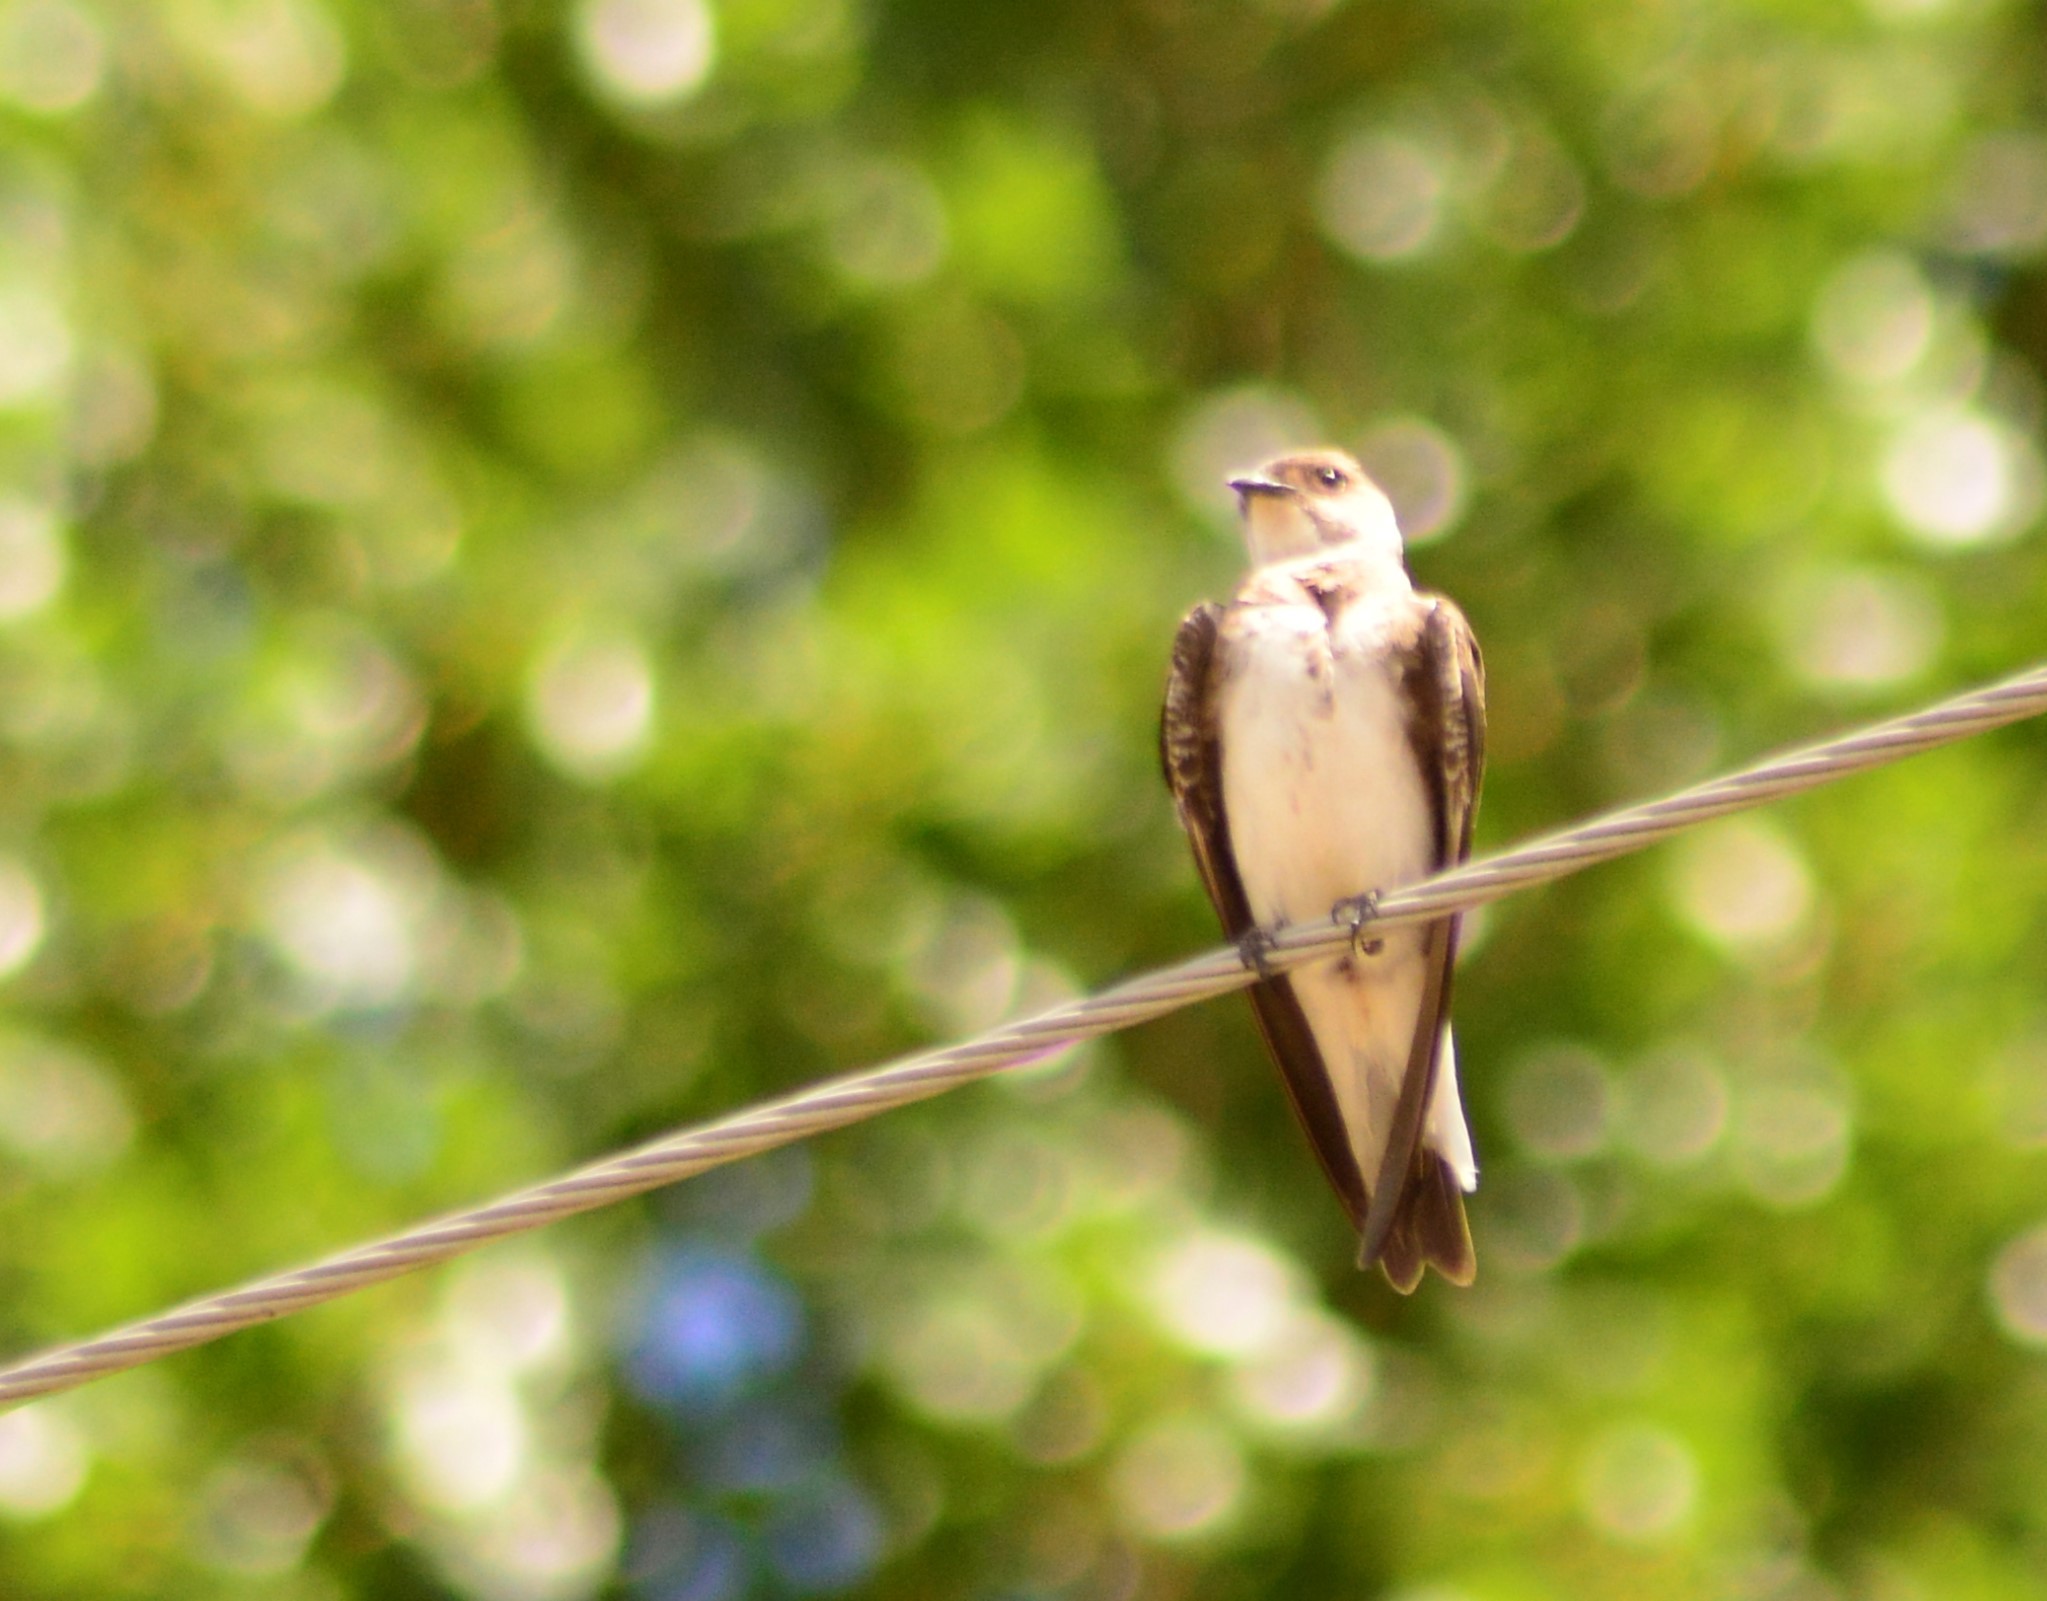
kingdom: Animalia
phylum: Chordata
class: Aves
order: Passeriformes
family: Hirundinidae
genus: Progne
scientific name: Progne tapera
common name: Brown-chested martin
